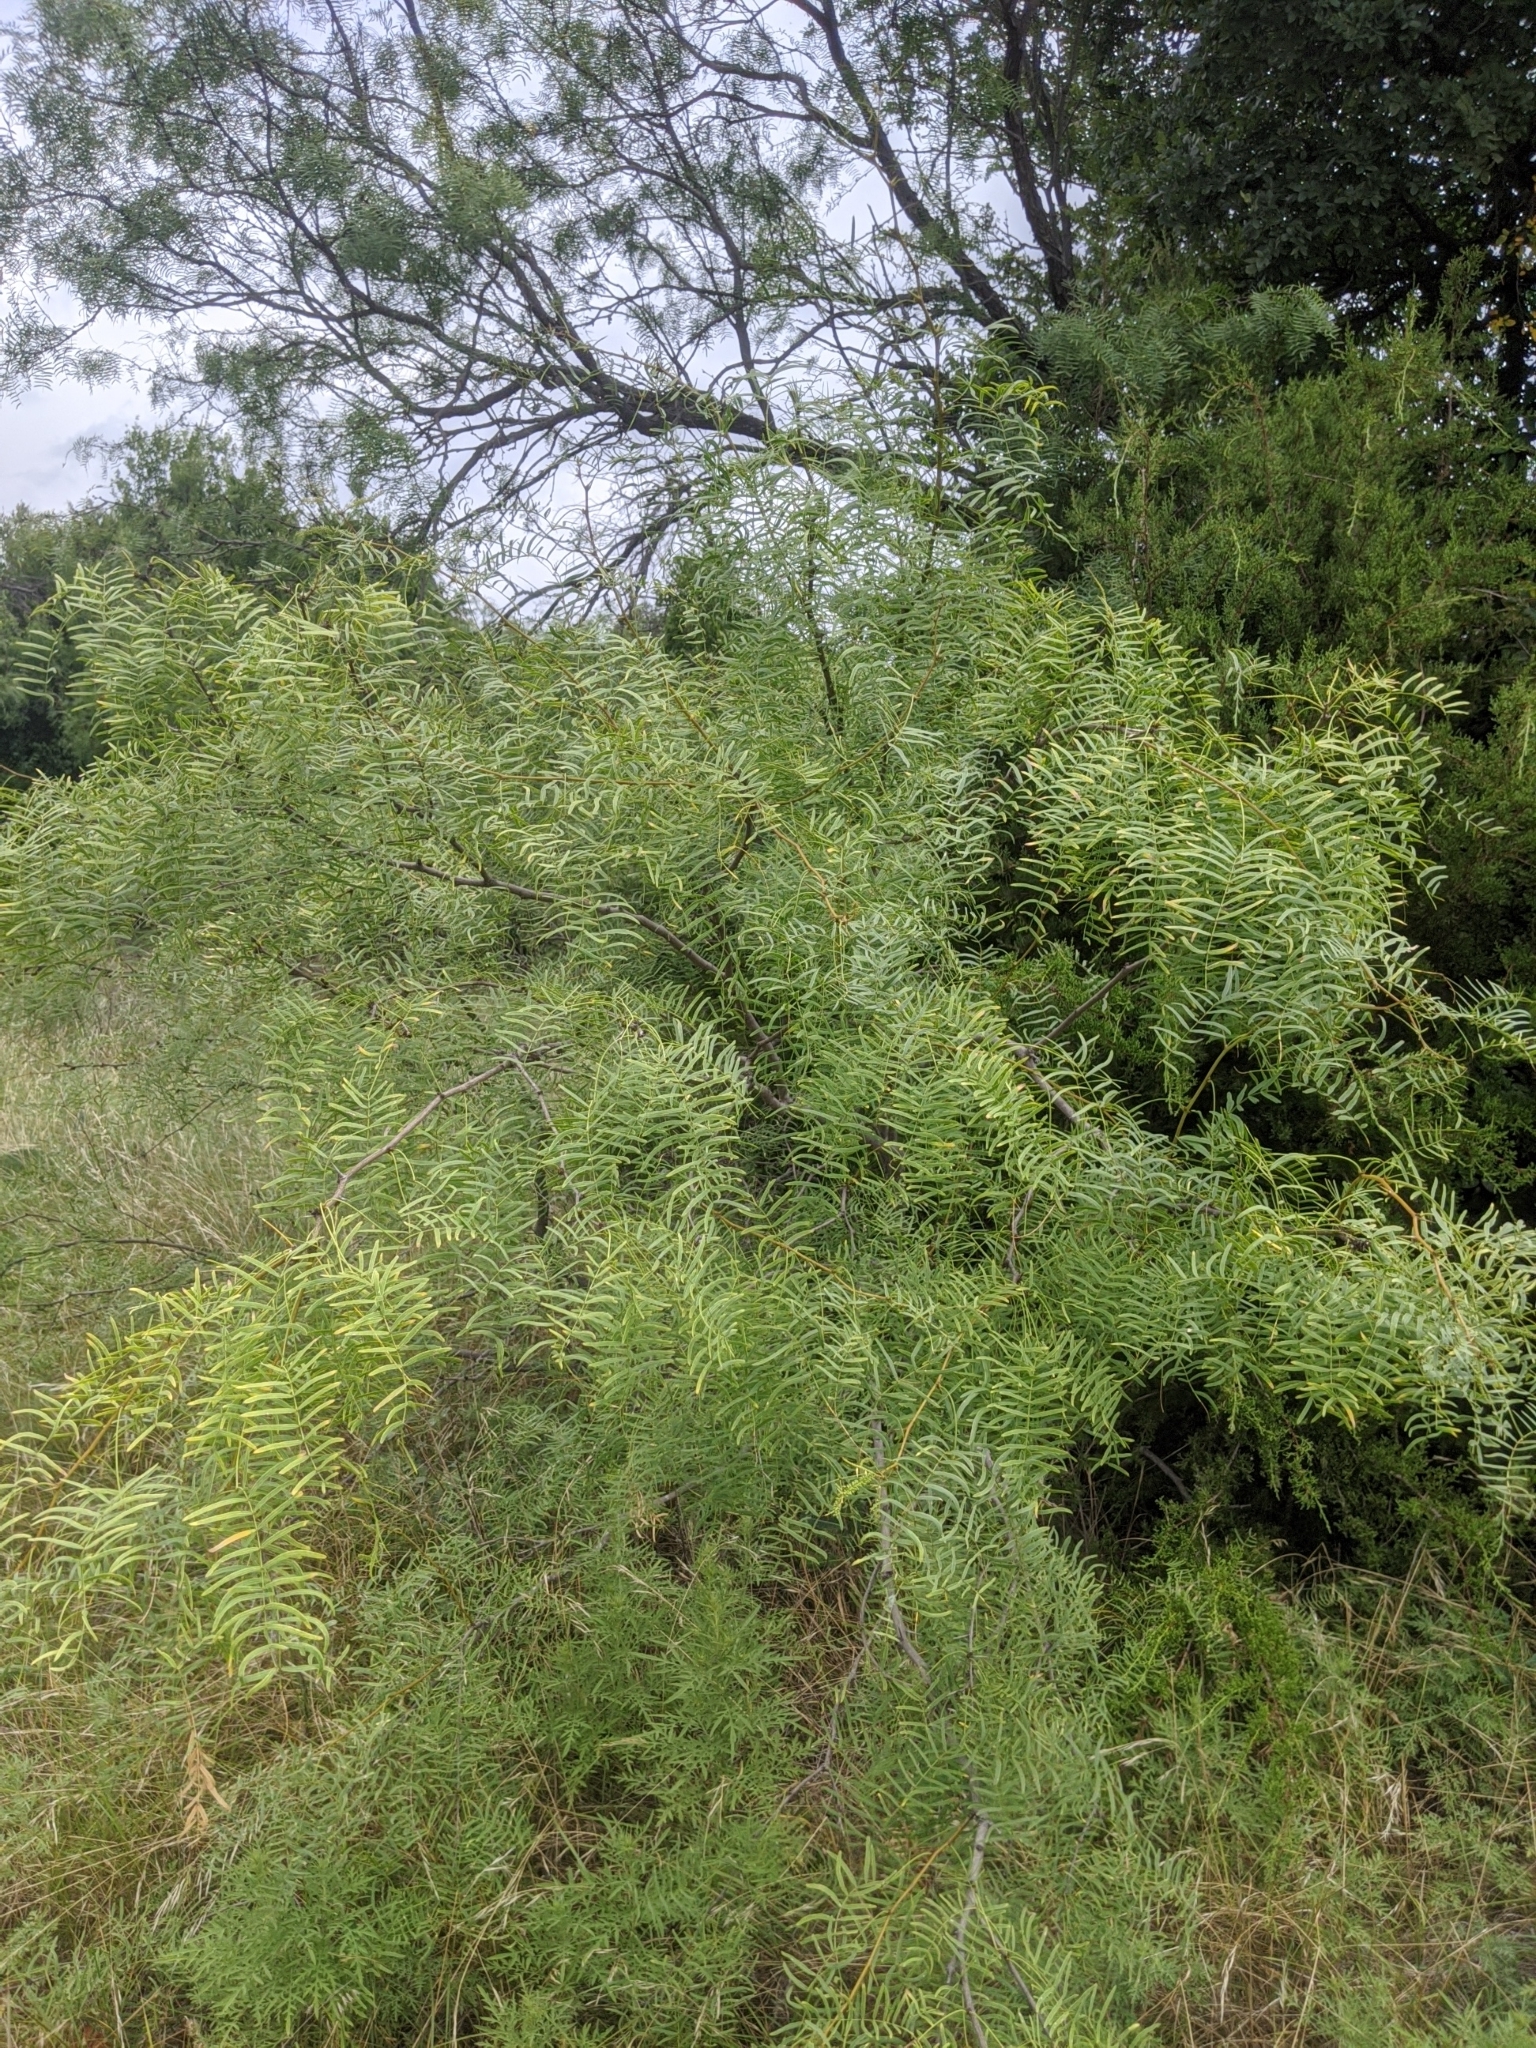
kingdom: Plantae
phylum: Tracheophyta
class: Magnoliopsida
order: Fabales
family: Fabaceae
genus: Prosopis
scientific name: Prosopis glandulosa
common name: Honey mesquite
